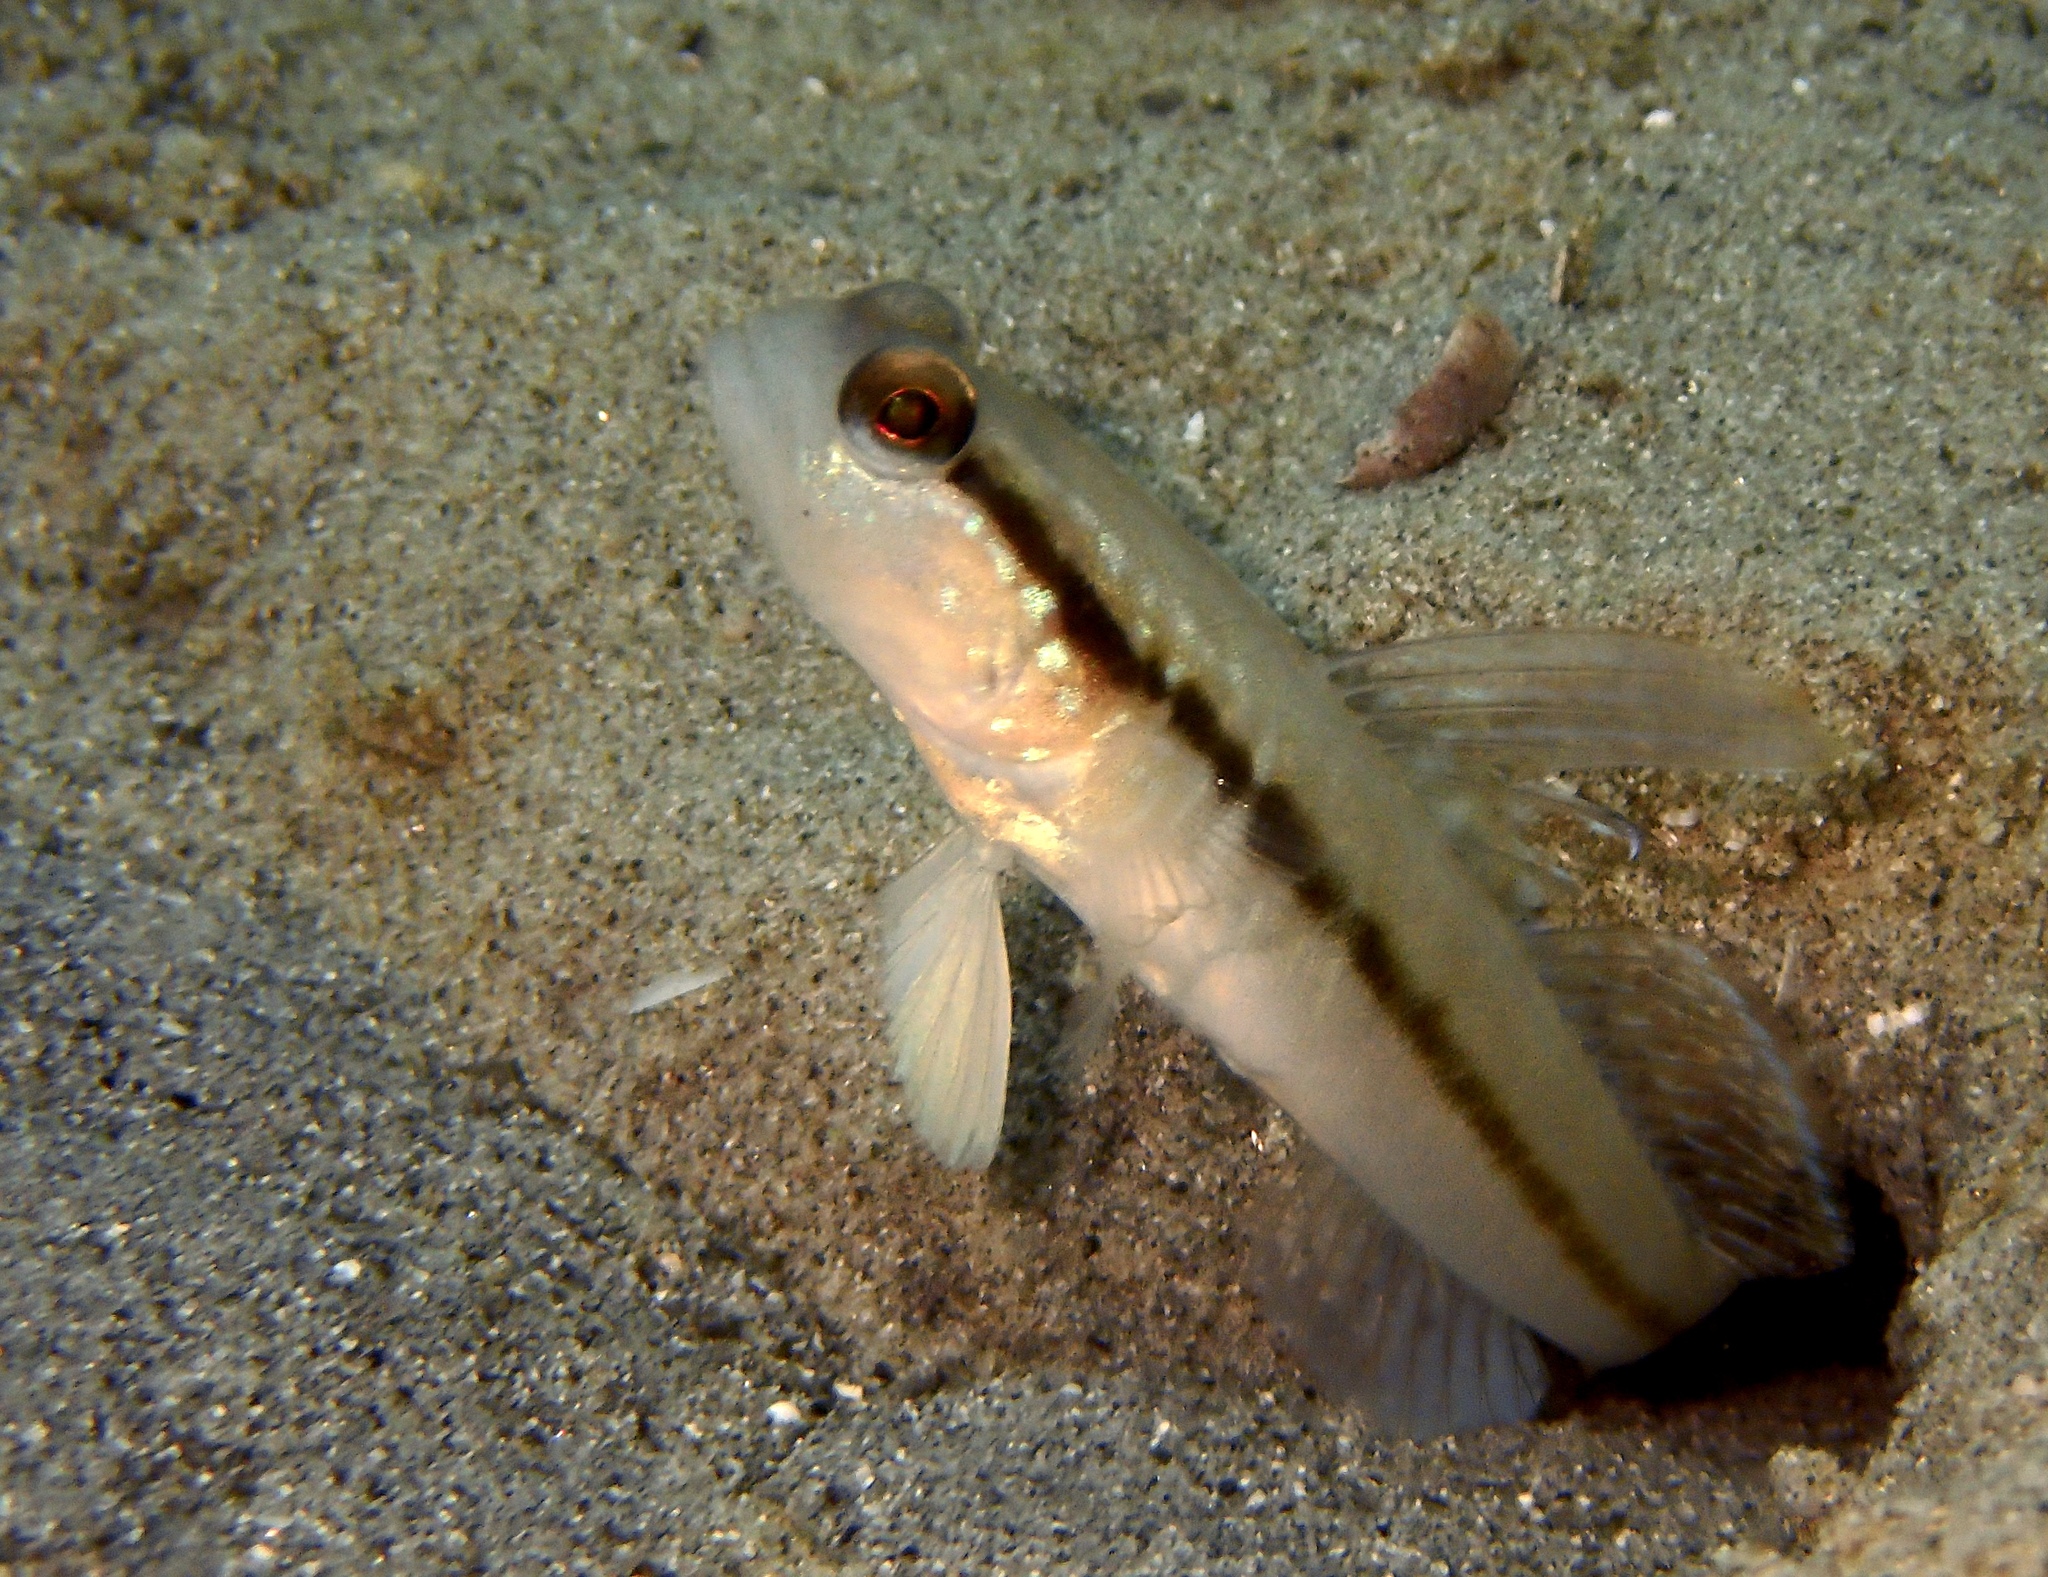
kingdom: Animalia
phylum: Chordata
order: Perciformes
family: Gobiidae
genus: Myersina
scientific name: Myersina nigrivirgata
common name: Black-line shrimp-goby
